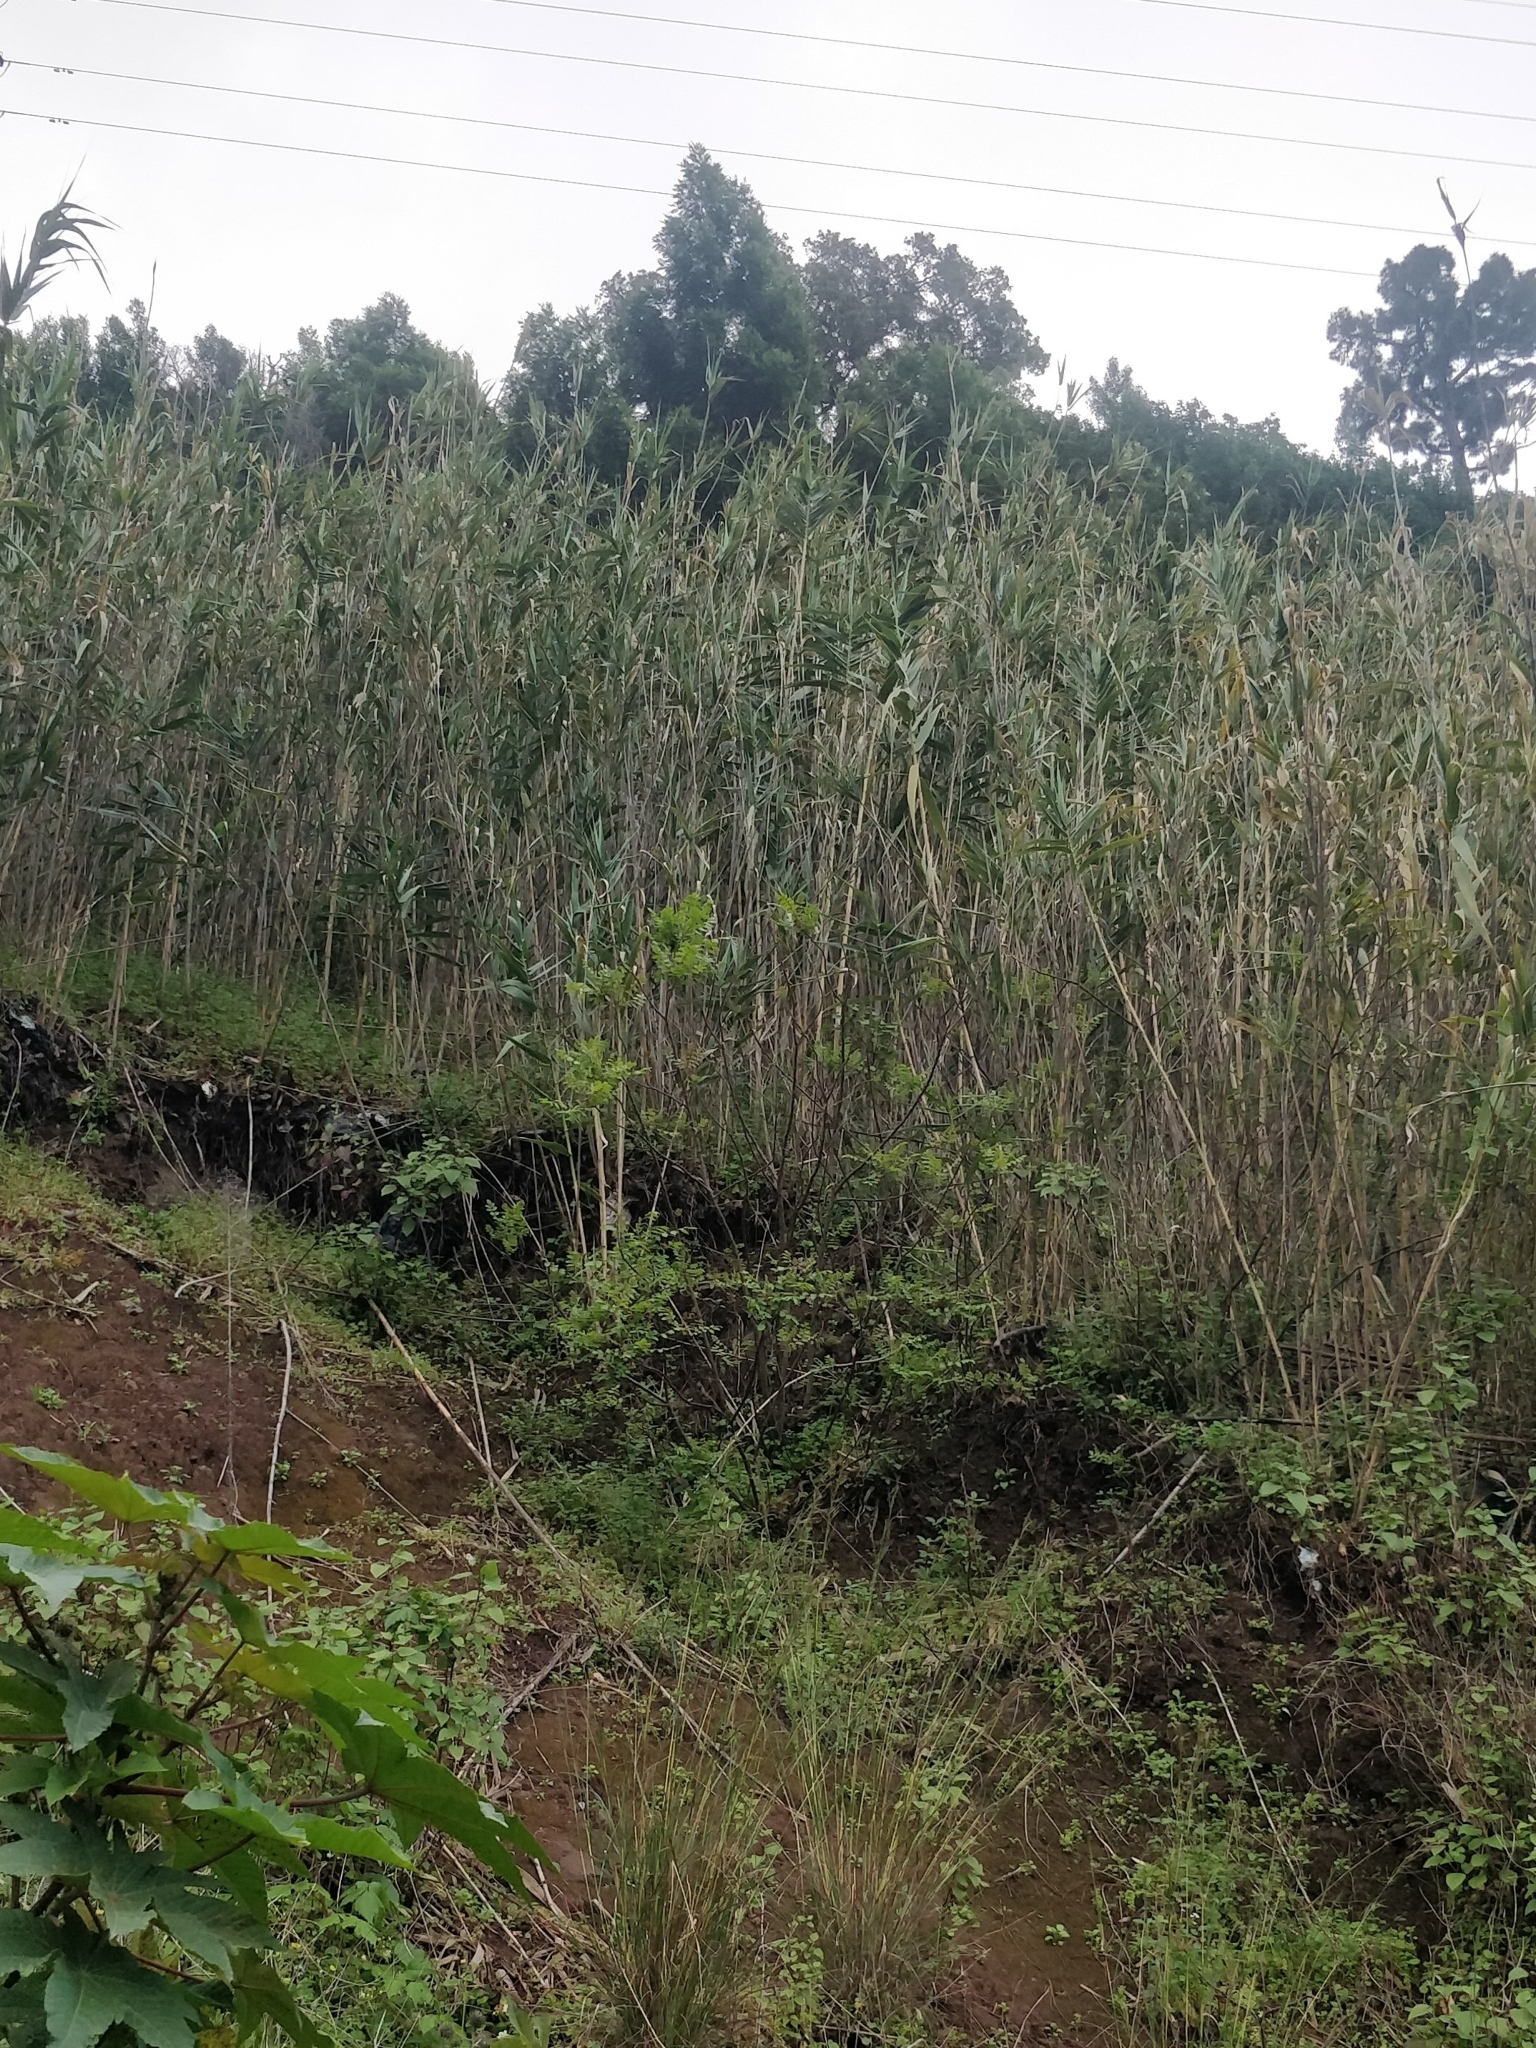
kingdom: Plantae
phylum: Tracheophyta
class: Liliopsida
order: Poales
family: Poaceae
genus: Arundo
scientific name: Arundo donax
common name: Giant reed
